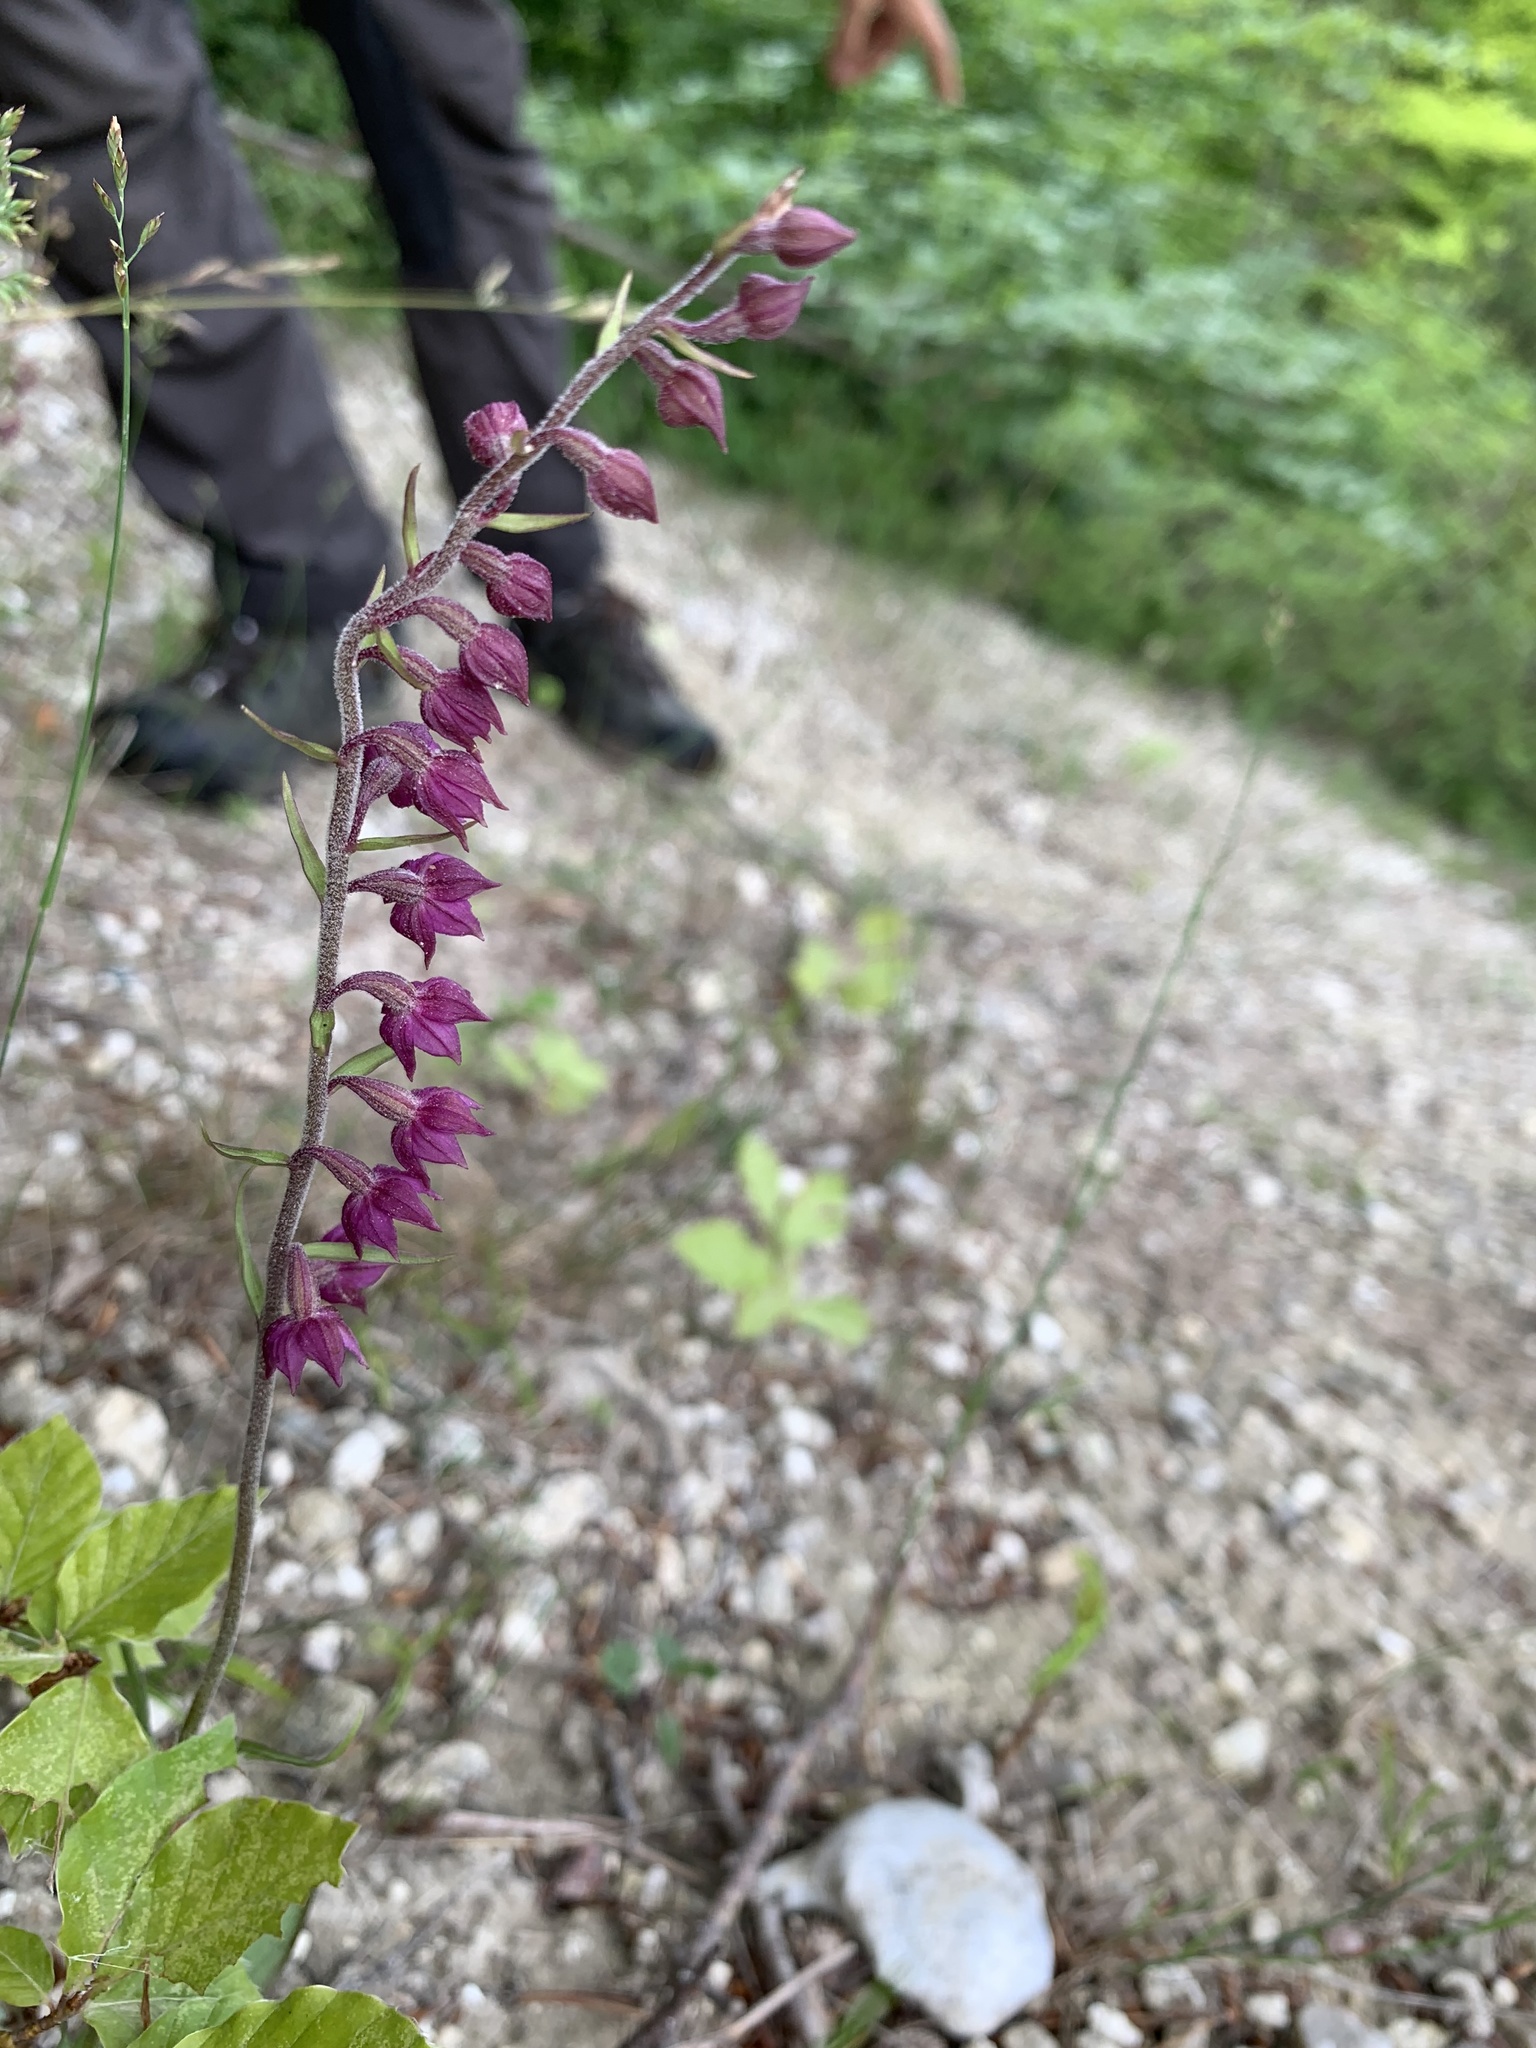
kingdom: Plantae
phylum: Tracheophyta
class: Liliopsida
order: Asparagales
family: Orchidaceae
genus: Epipactis
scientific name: Epipactis atrorubens
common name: Dark-red helleborine
